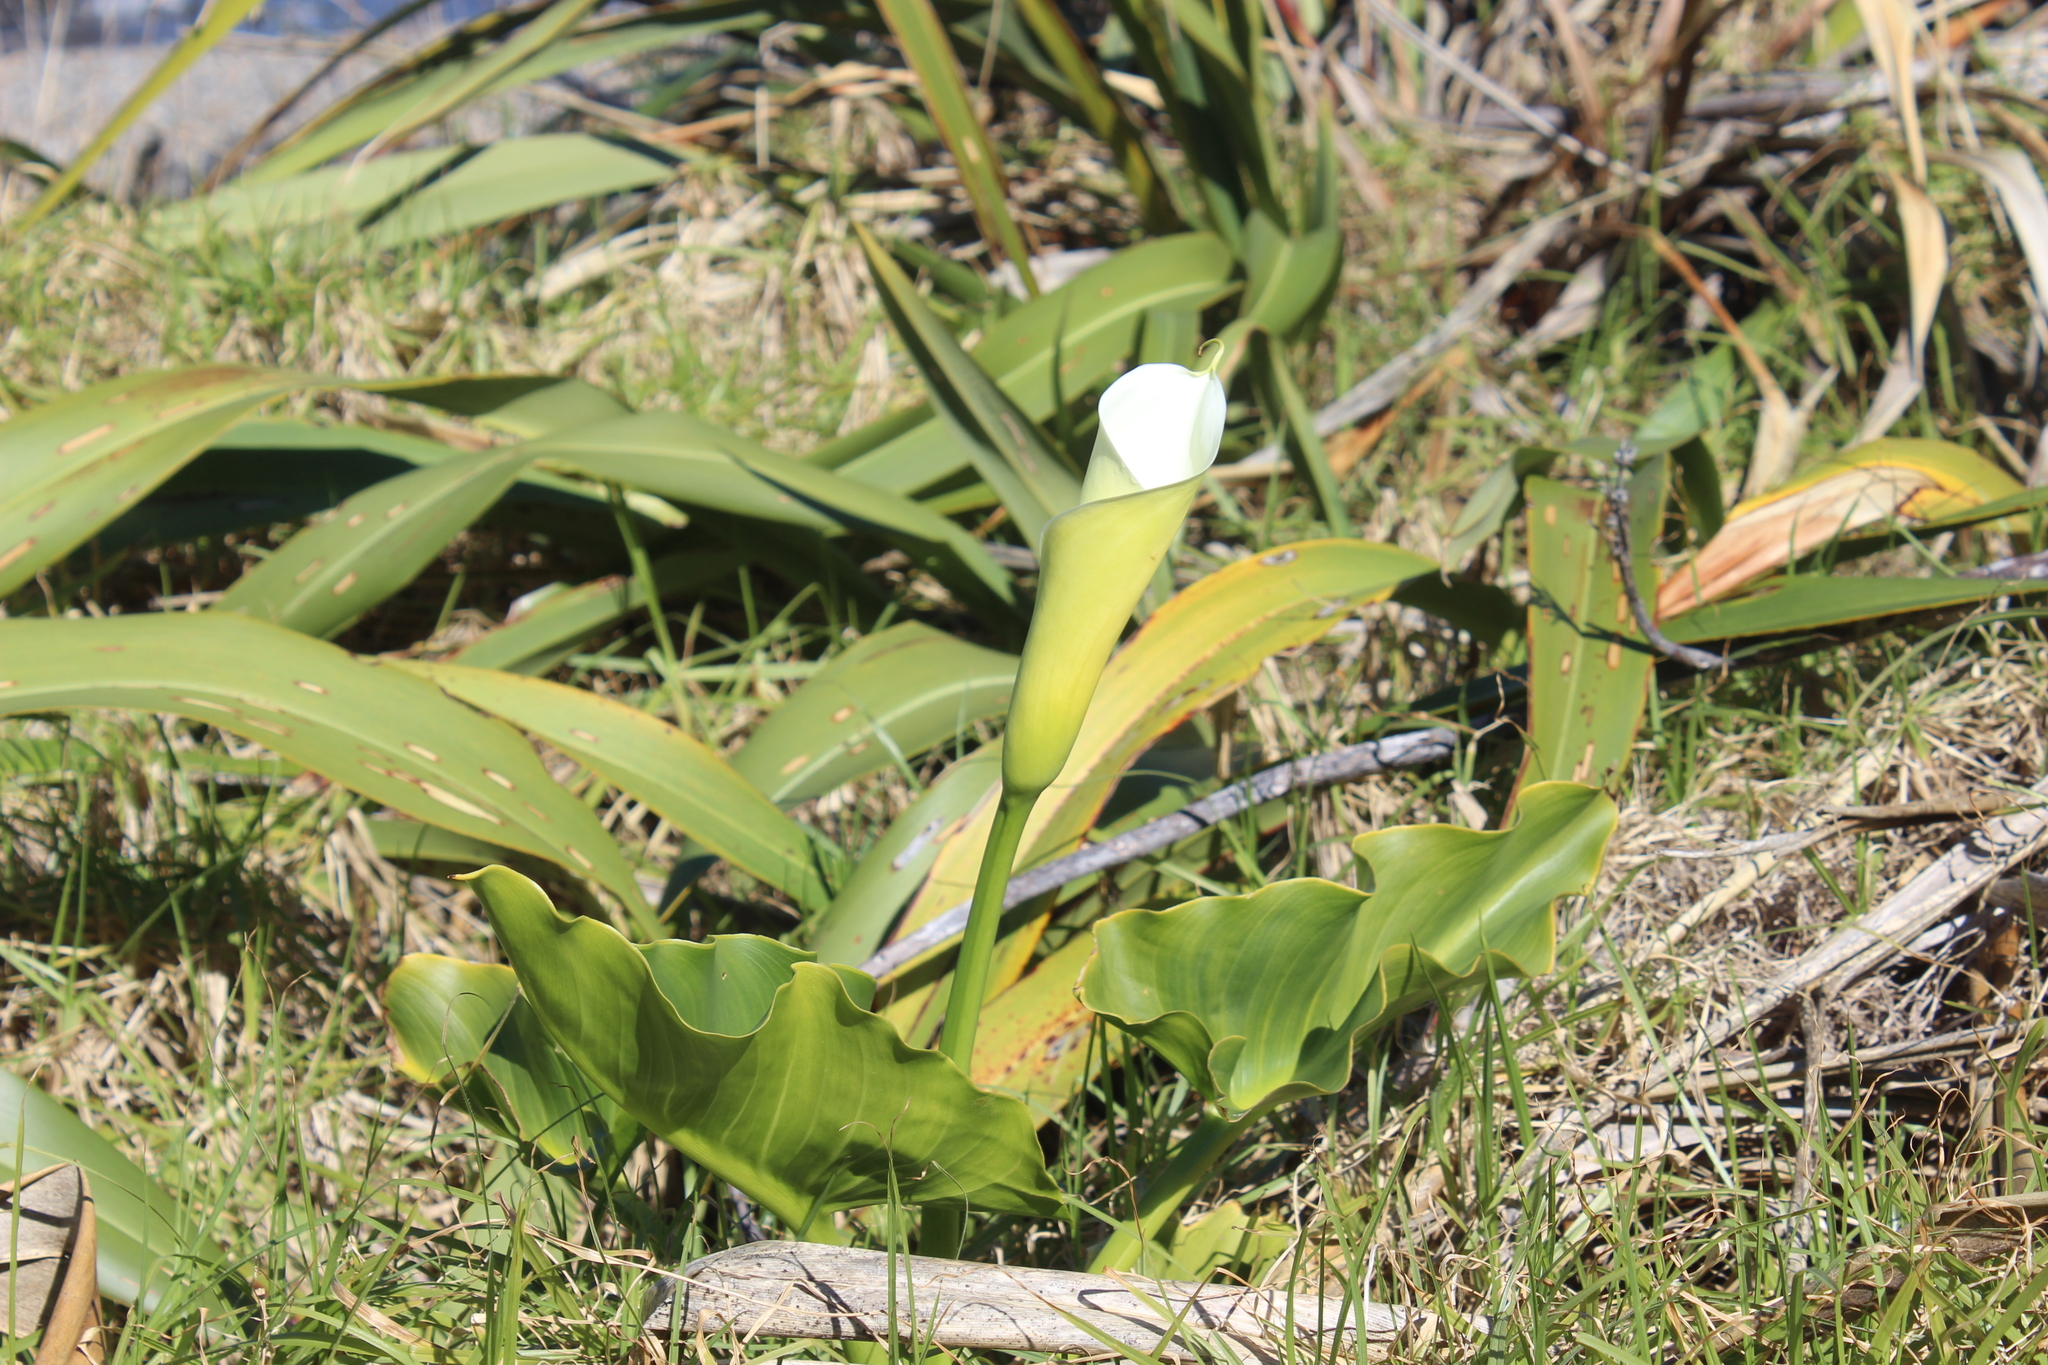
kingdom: Plantae
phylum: Tracheophyta
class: Liliopsida
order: Alismatales
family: Araceae
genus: Zantedeschia
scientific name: Zantedeschia aethiopica
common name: Altar-lily
